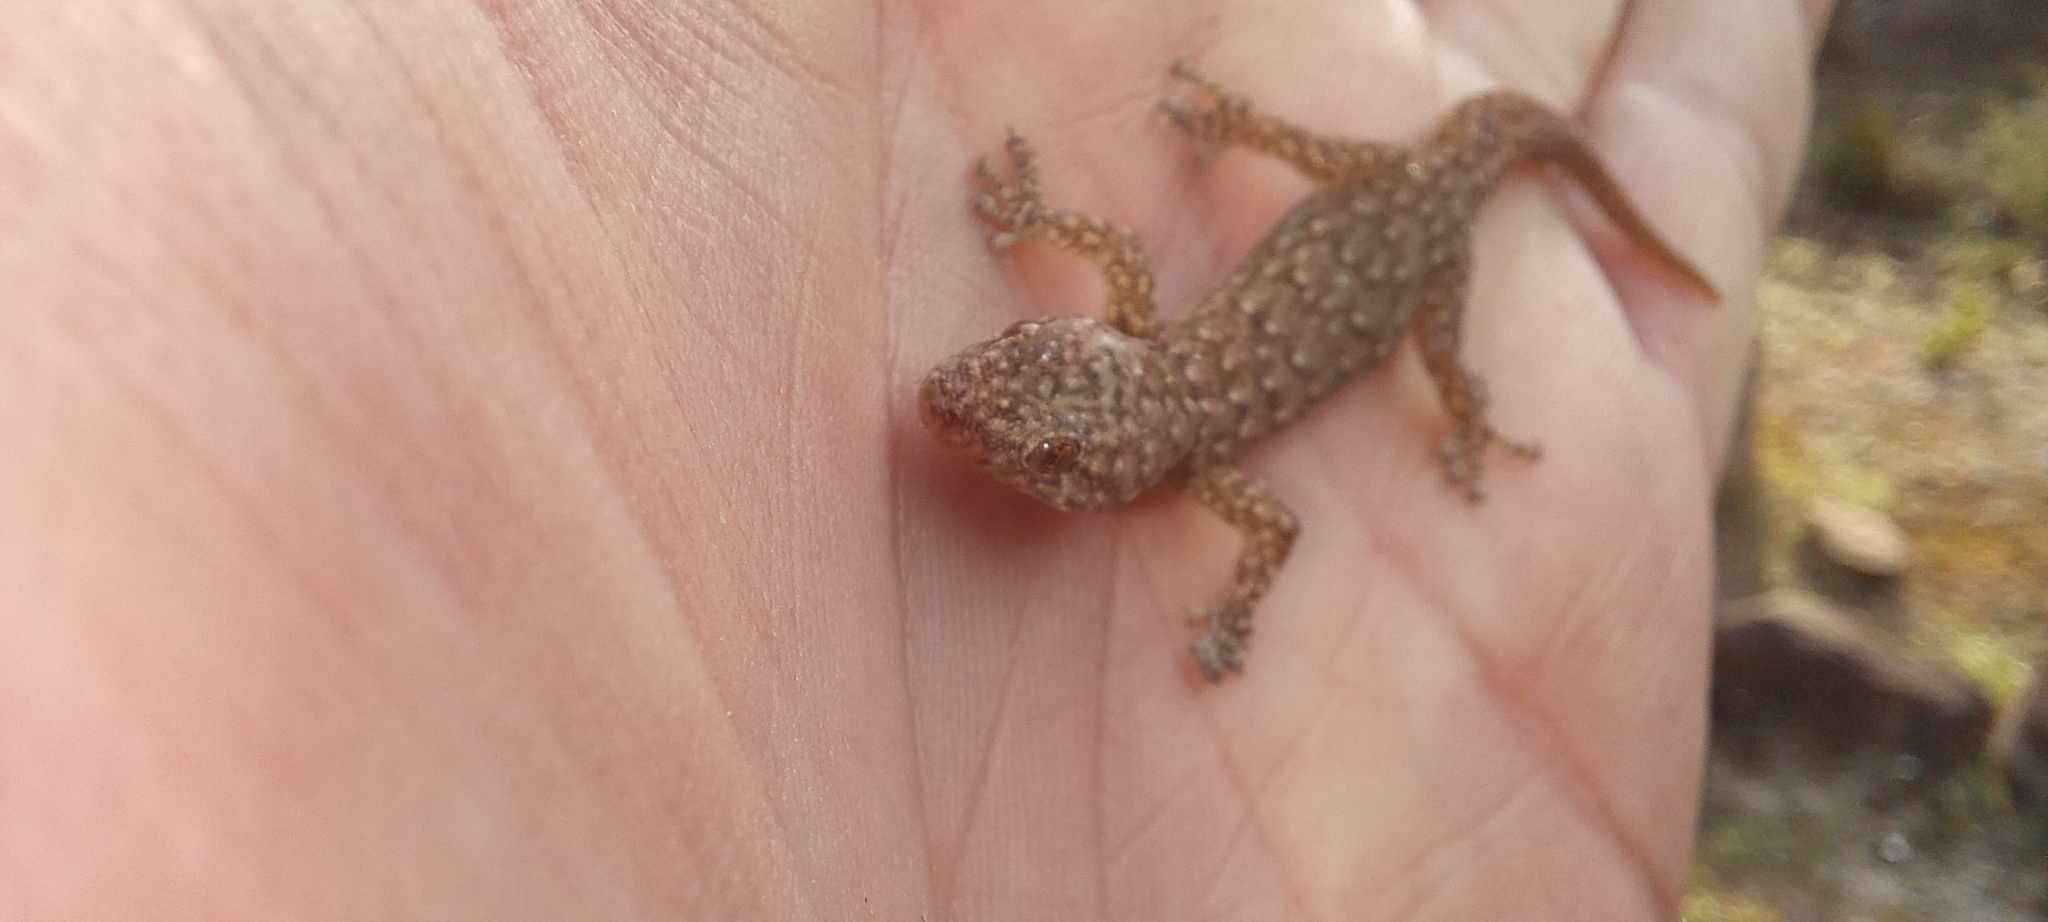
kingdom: Animalia
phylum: Chordata
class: Squamata
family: Gekkonidae
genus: Goggia
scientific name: Goggia hexapora
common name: Cedarberg dwarf leaf-toed gecko
